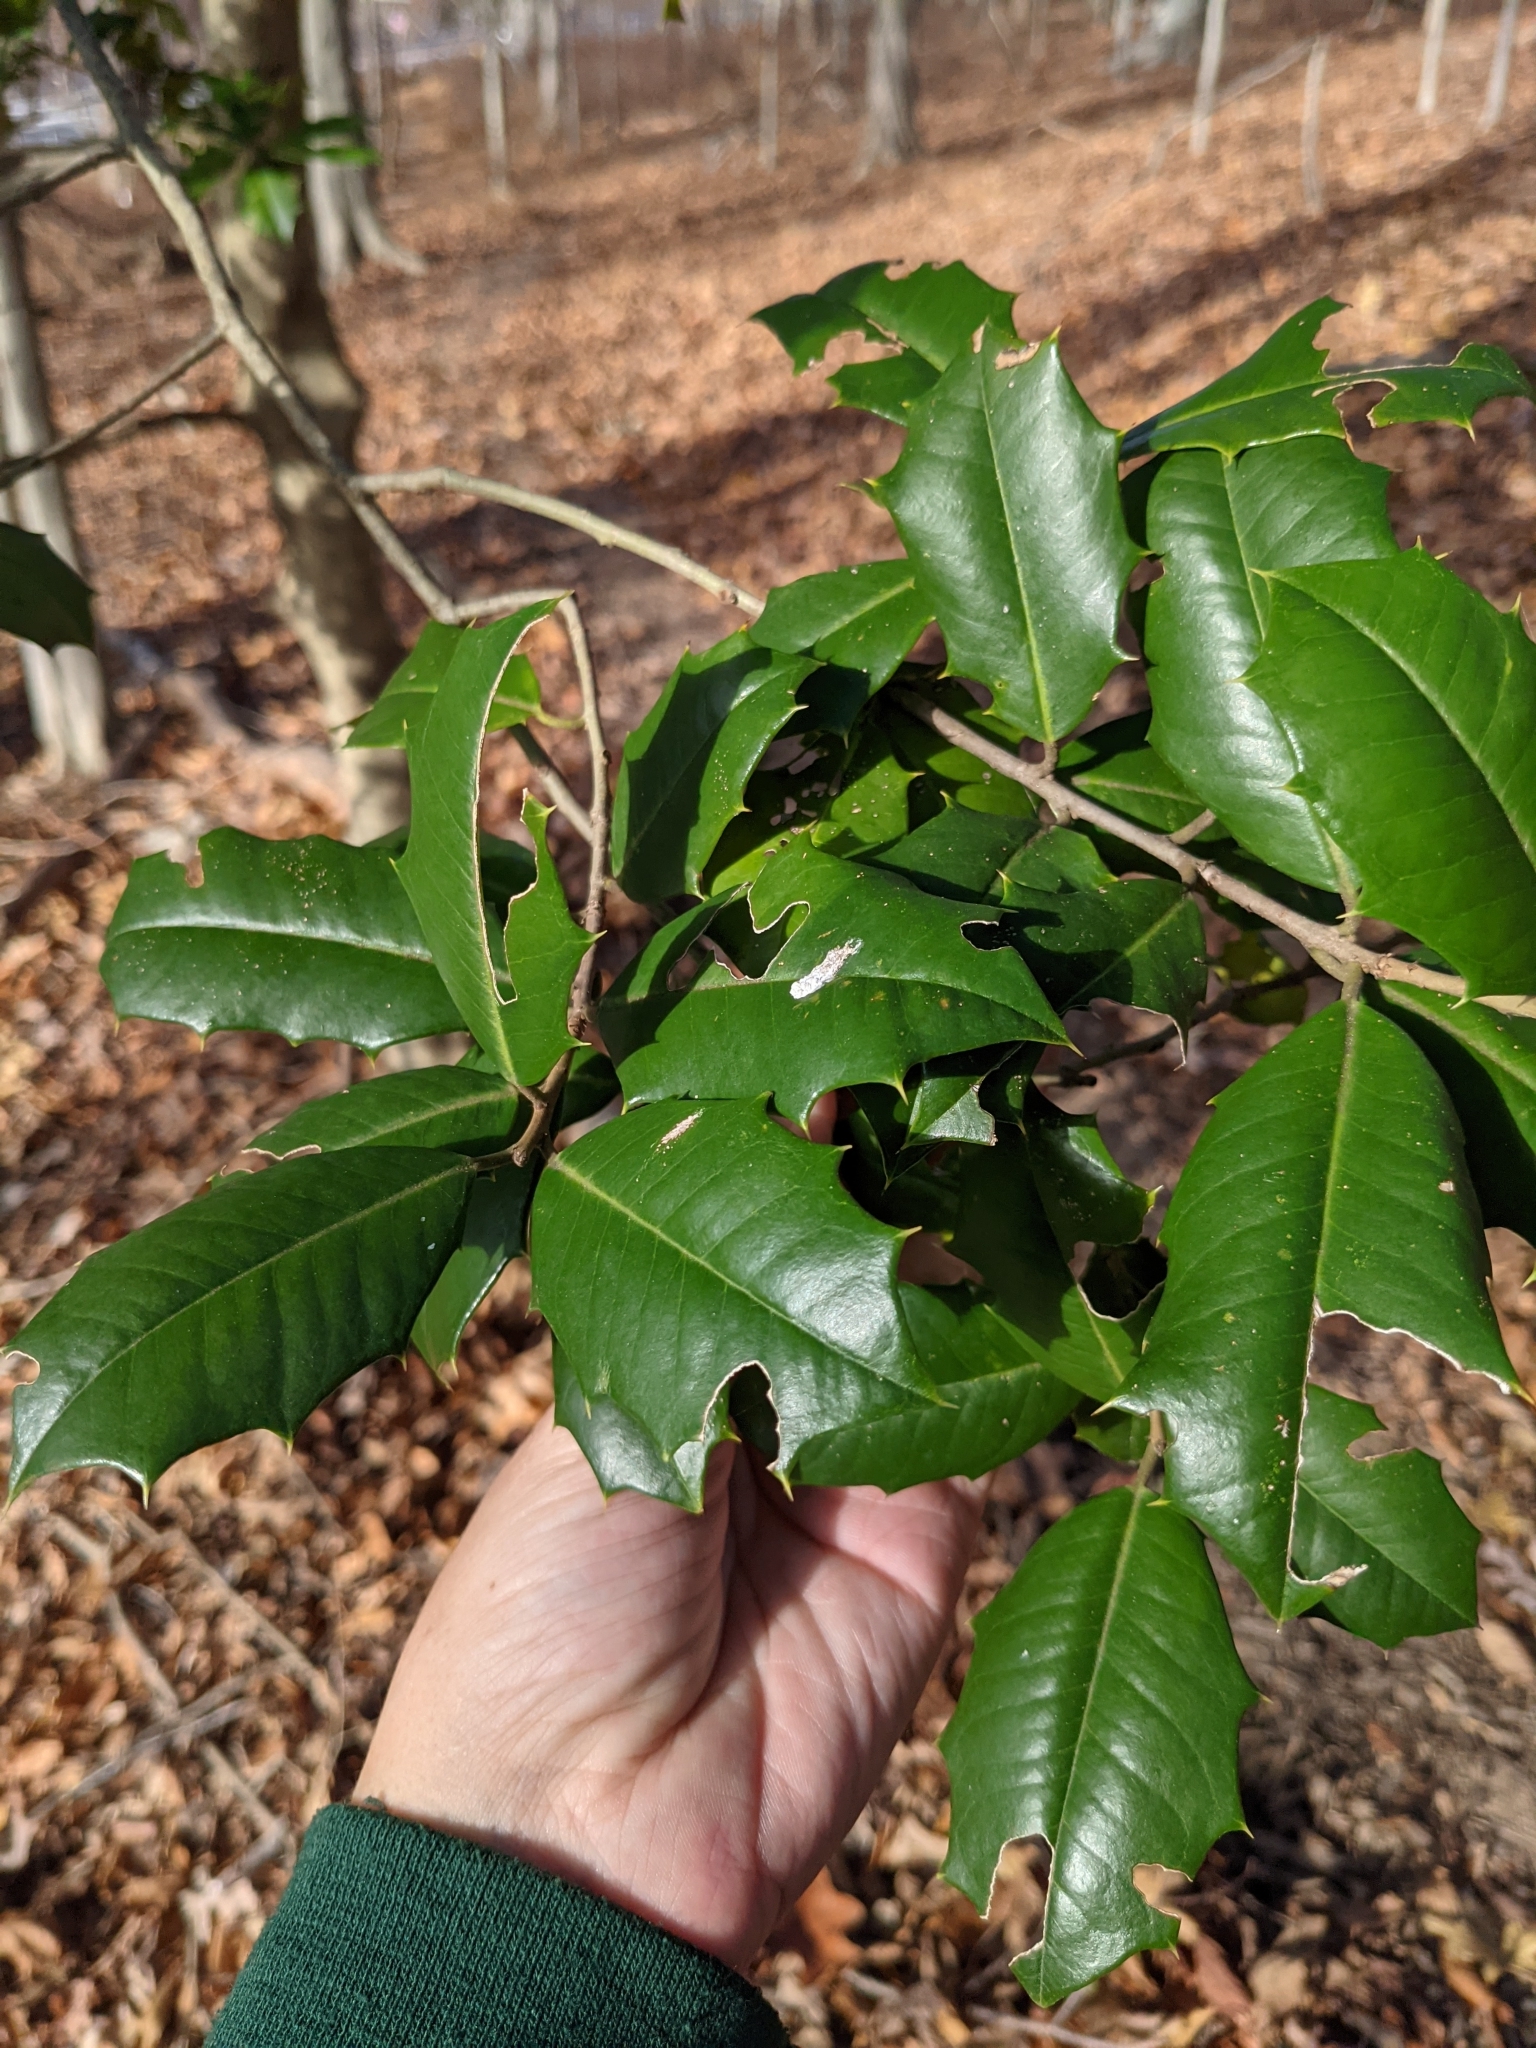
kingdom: Plantae
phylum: Tracheophyta
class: Magnoliopsida
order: Aquifoliales
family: Aquifoliaceae
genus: Ilex
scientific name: Ilex opaca
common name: American holly
